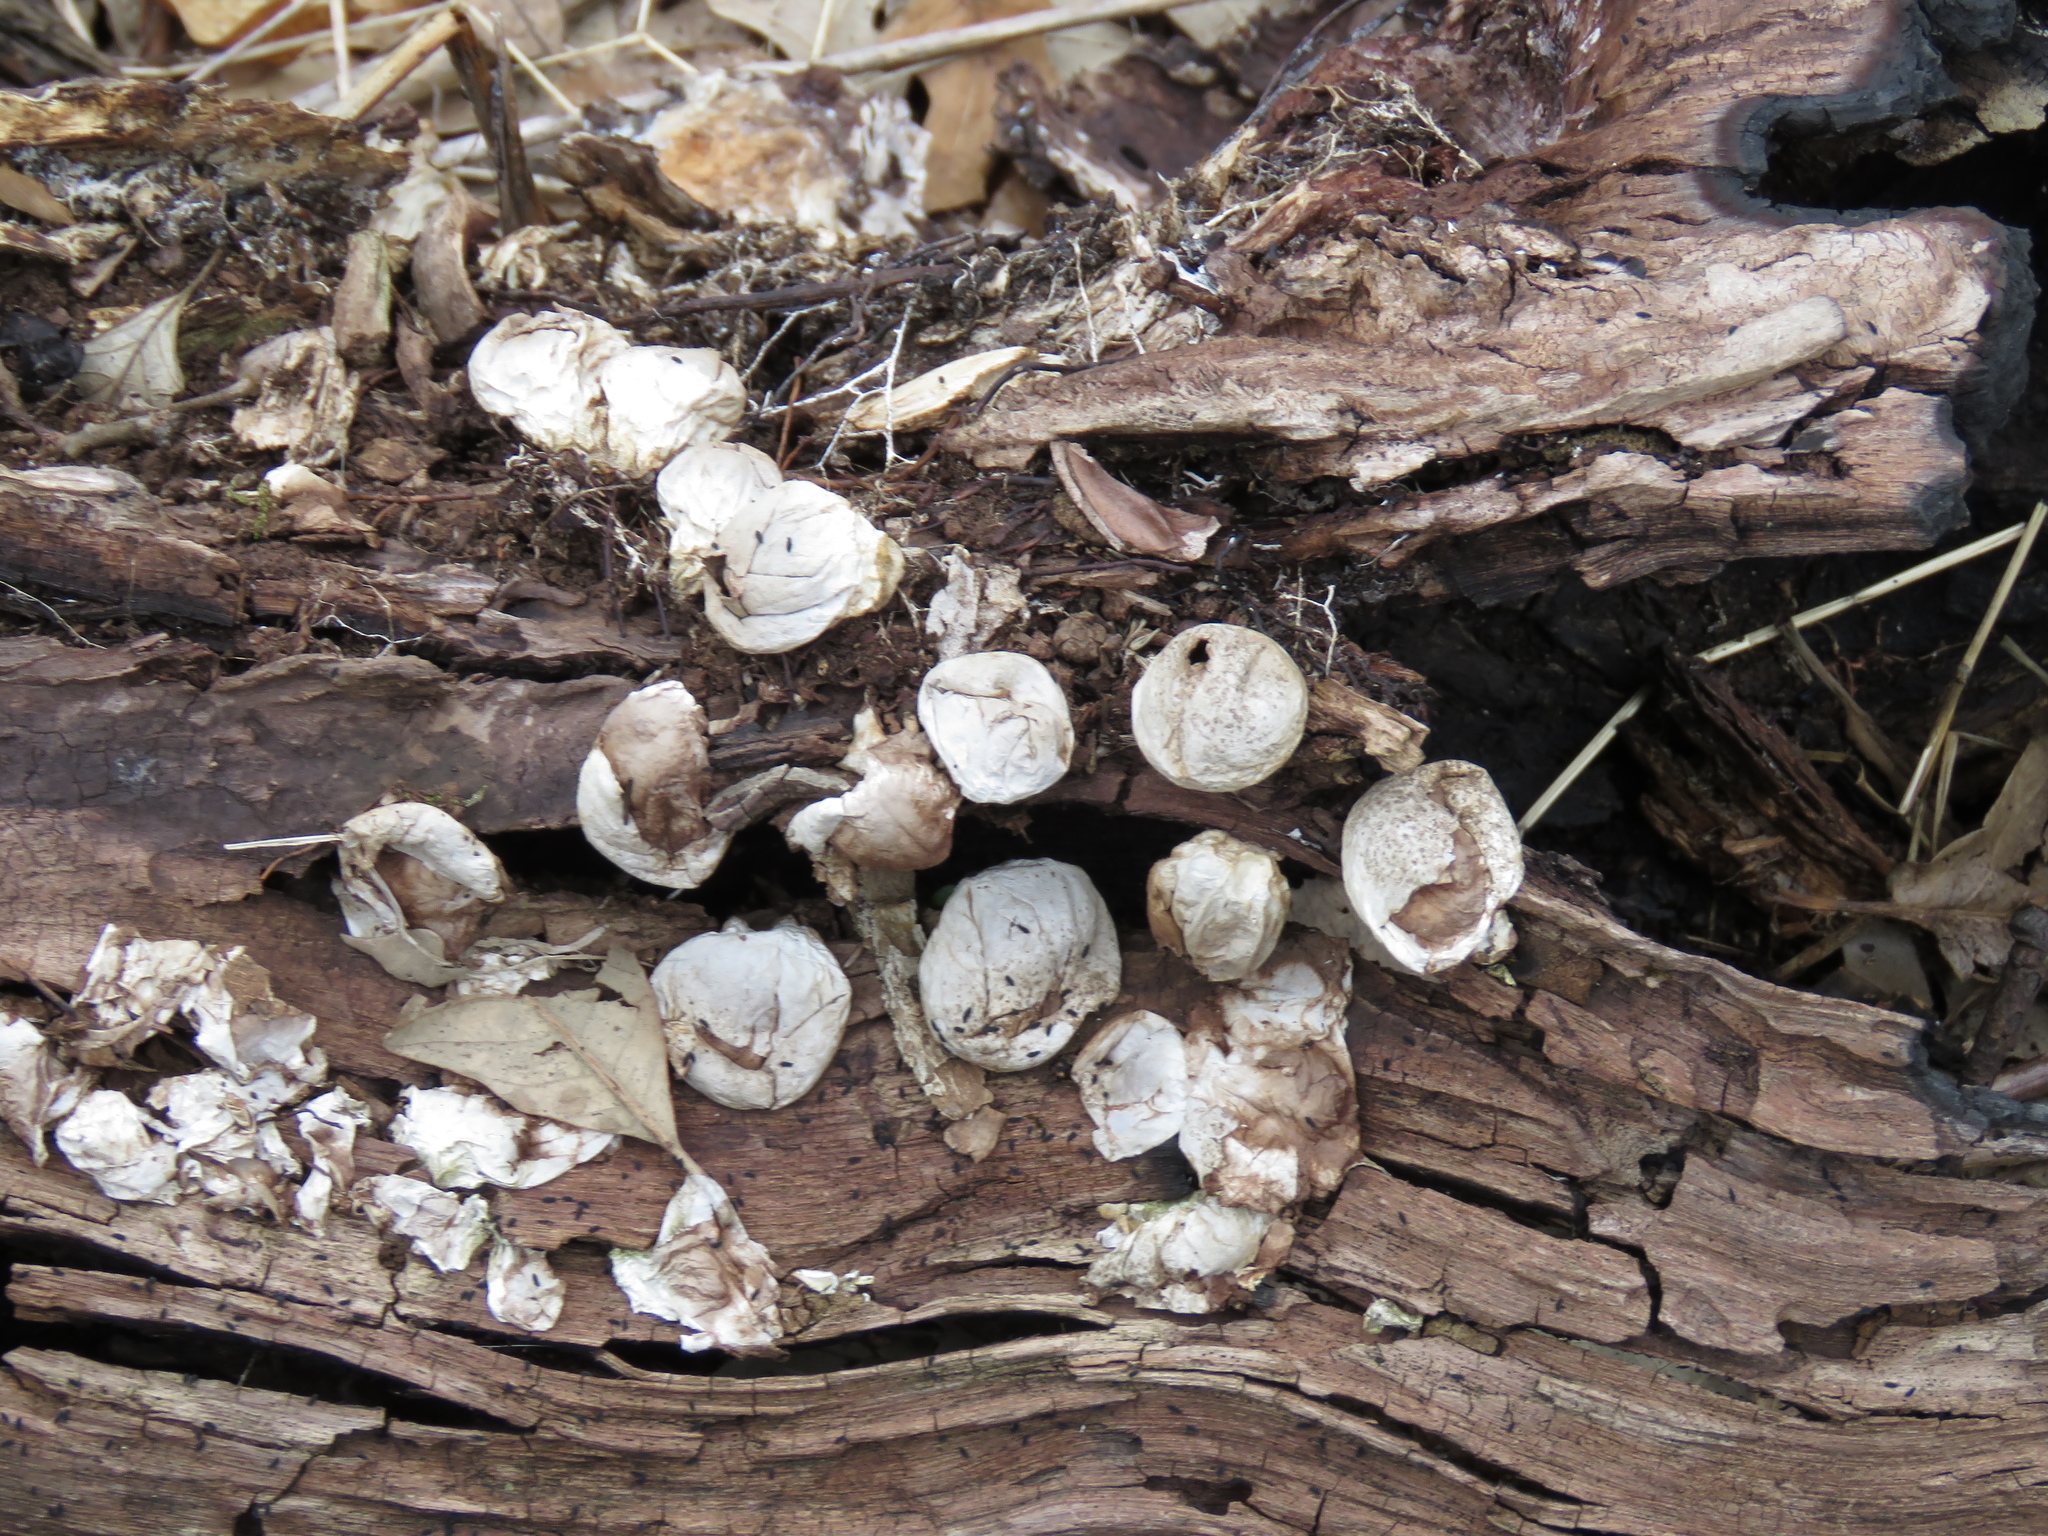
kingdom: Fungi
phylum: Basidiomycota
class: Agaricomycetes
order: Agaricales
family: Lycoperdaceae
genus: Apioperdon
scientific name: Apioperdon pyriforme
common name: Pear-shaped puffball
